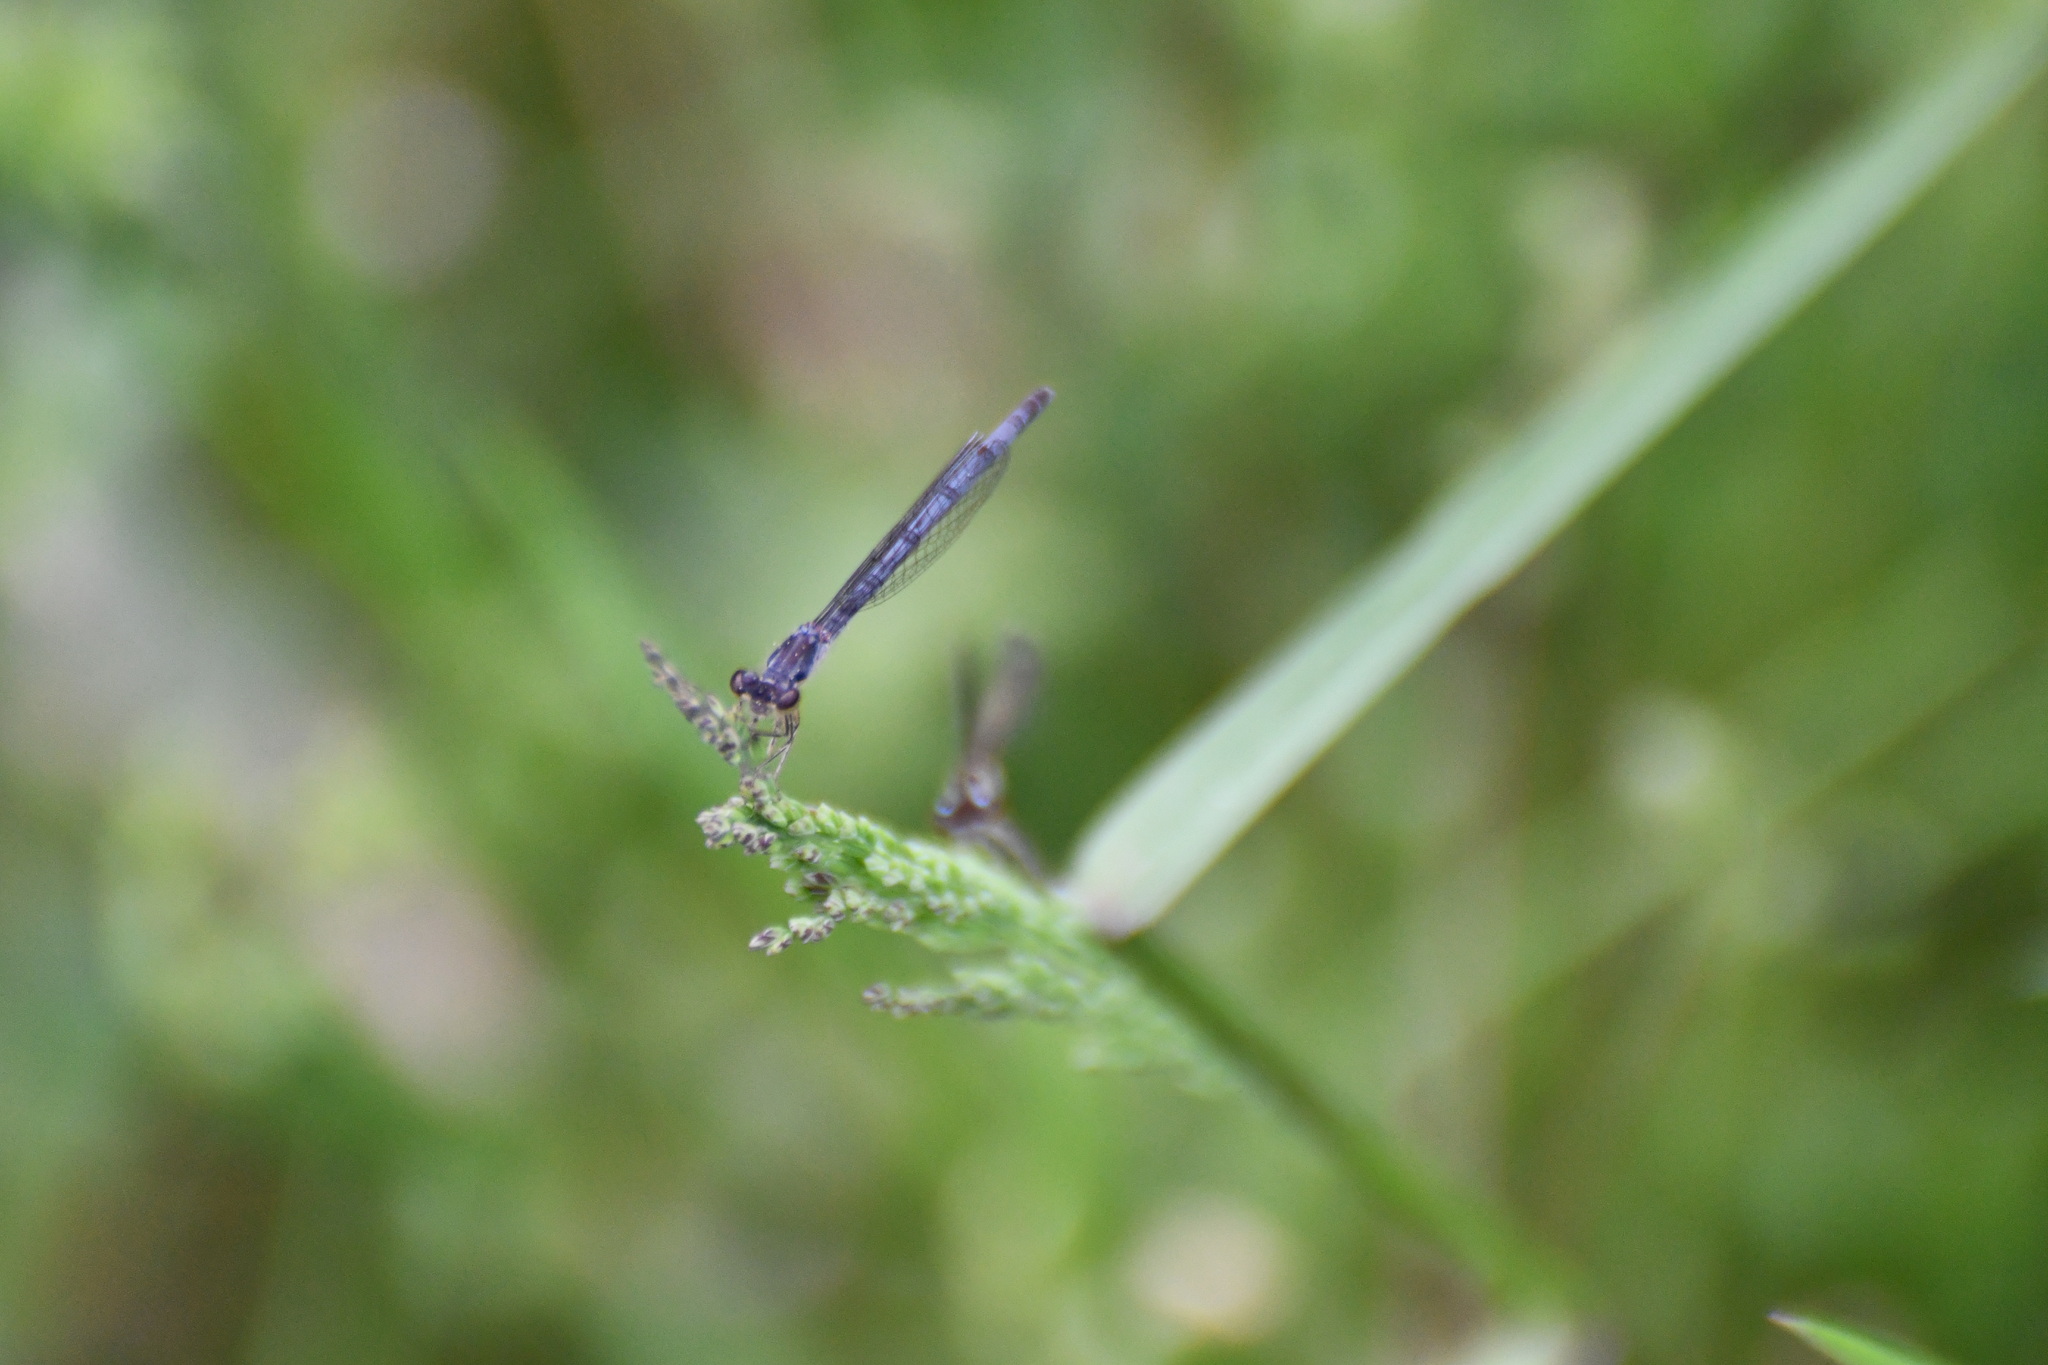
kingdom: Animalia
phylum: Arthropoda
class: Insecta
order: Odonata
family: Coenagrionidae
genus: Ischnura
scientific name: Ischnura posita
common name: Fragile forktail
